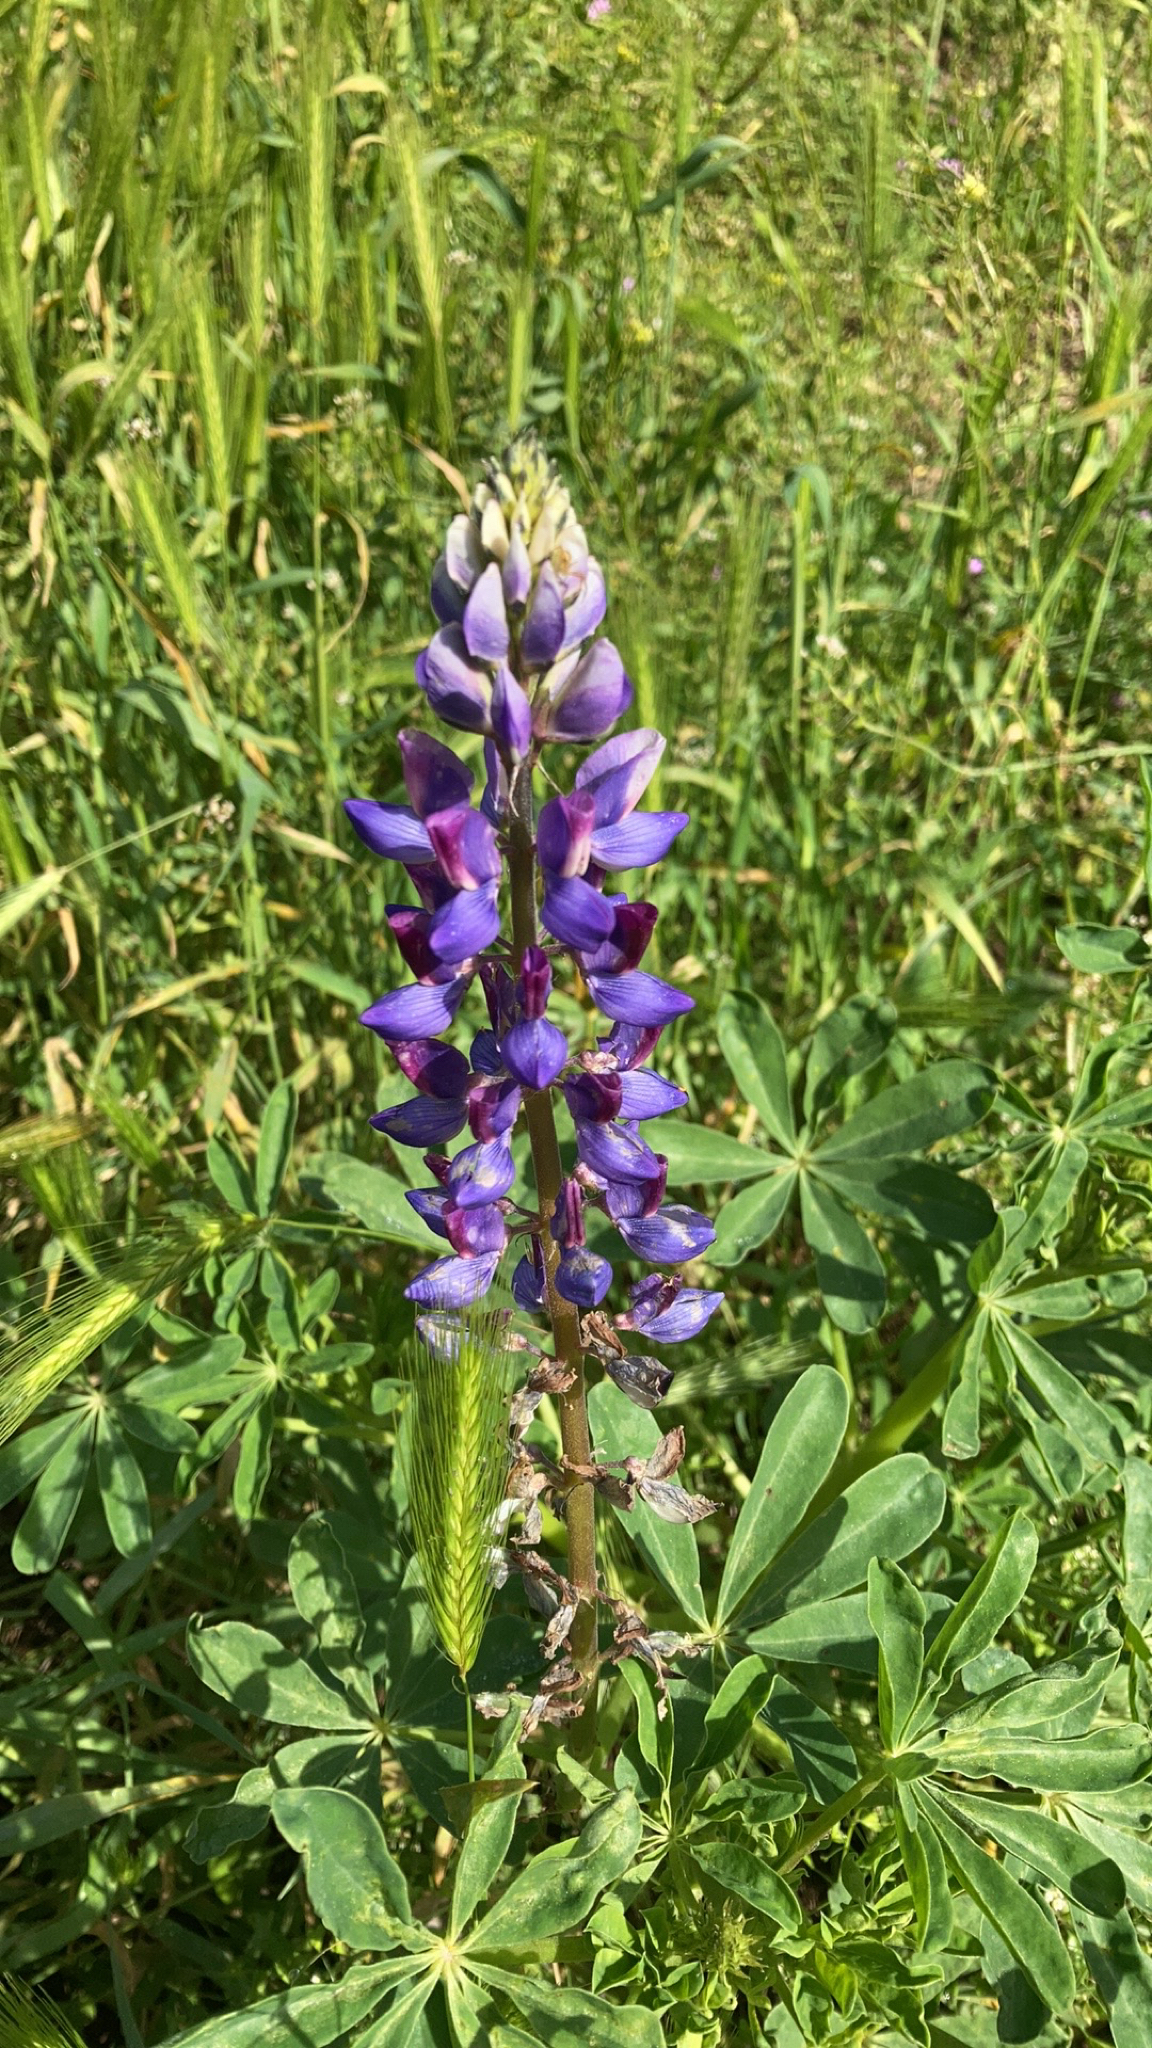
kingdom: Plantae
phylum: Tracheophyta
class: Magnoliopsida
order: Fabales
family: Fabaceae
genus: Lupinus
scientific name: Lupinus succulentus
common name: Arroyo lupine
